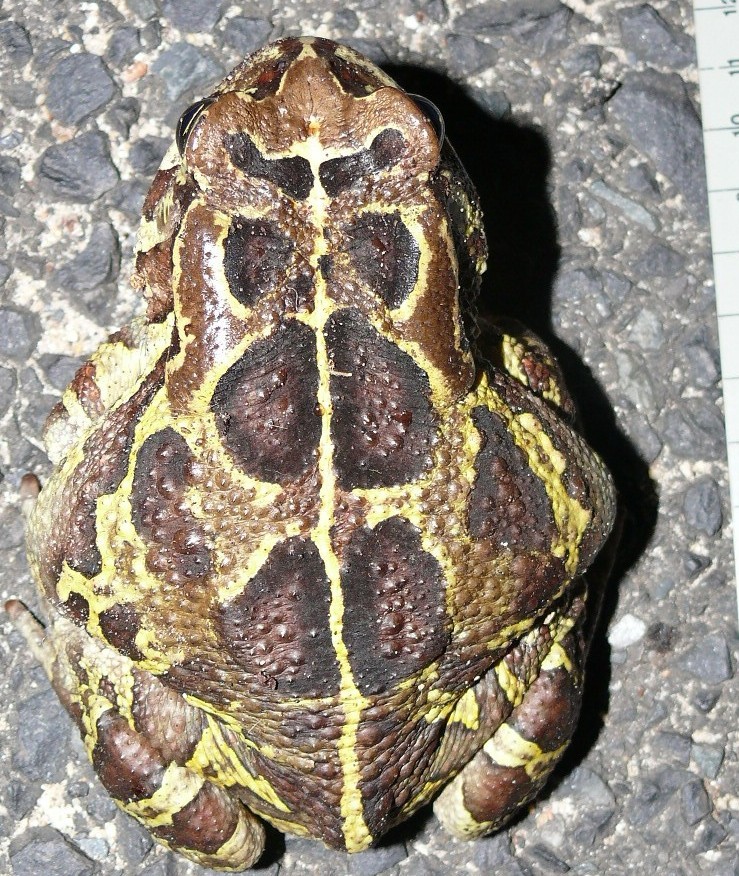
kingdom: Animalia
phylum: Chordata
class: Amphibia
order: Anura
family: Bufonidae
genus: Sclerophrys
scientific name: Sclerophrys pantherina
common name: Panther toad
